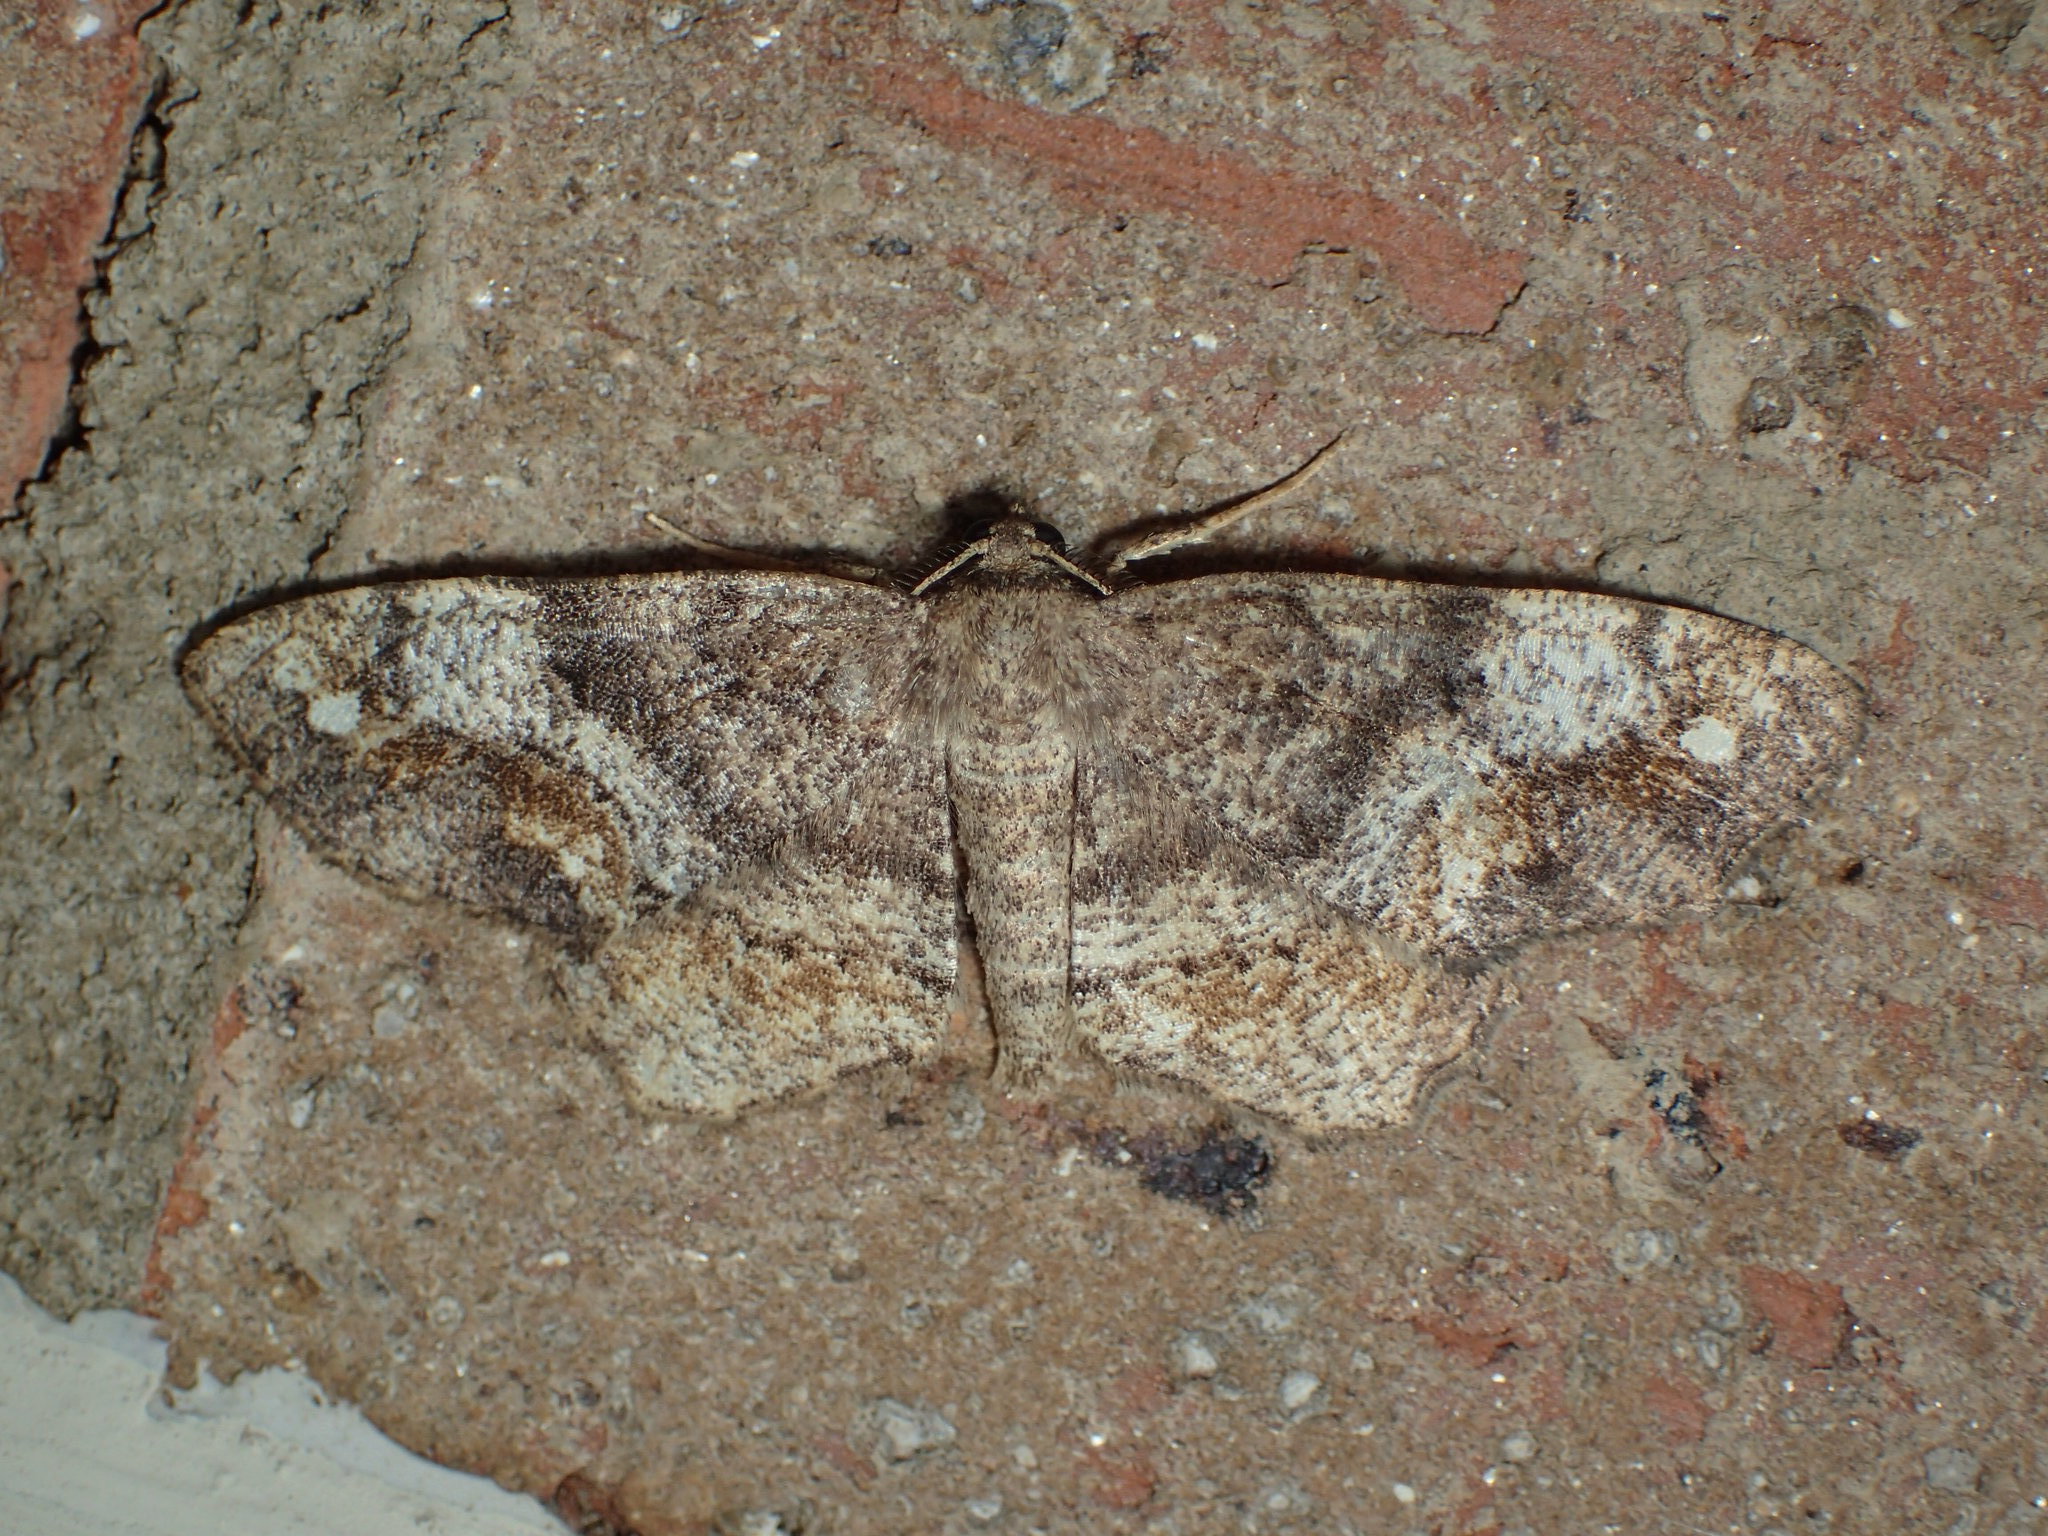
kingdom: Animalia
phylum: Arthropoda
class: Insecta
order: Lepidoptera
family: Geometridae
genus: Hypagyrtis
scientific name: Hypagyrtis unipunctata
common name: One-spotted variant
